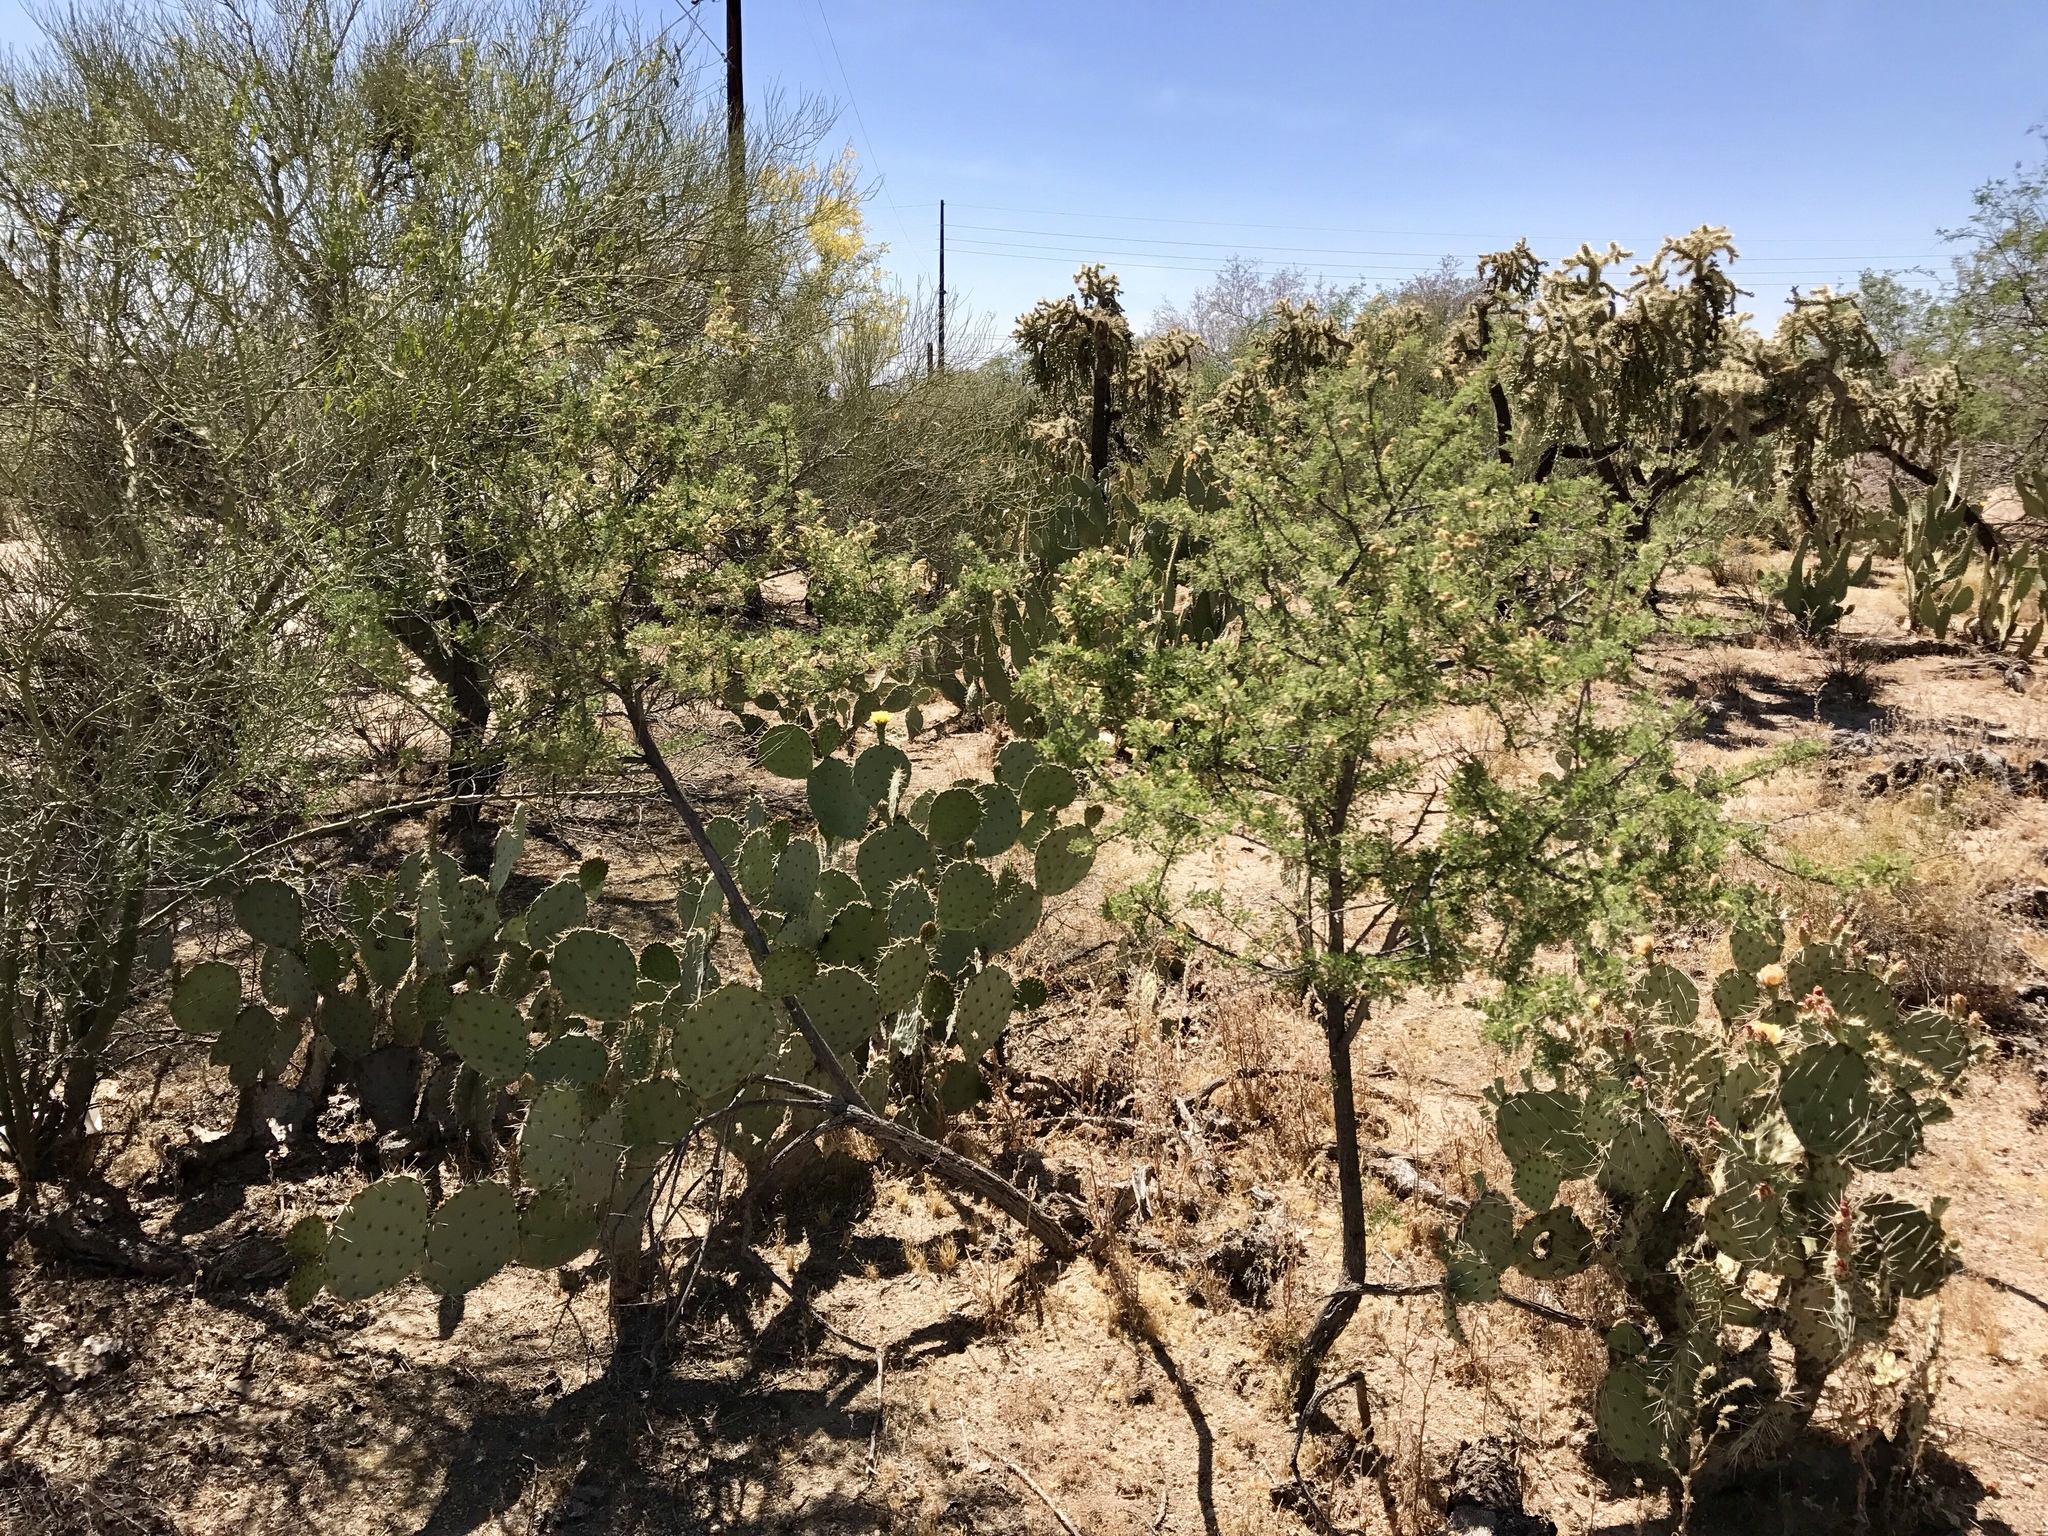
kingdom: Plantae
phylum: Tracheophyta
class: Magnoliopsida
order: Fabales
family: Fabaceae
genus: Senegalia
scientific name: Senegalia greggii
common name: Texas-mimosa
